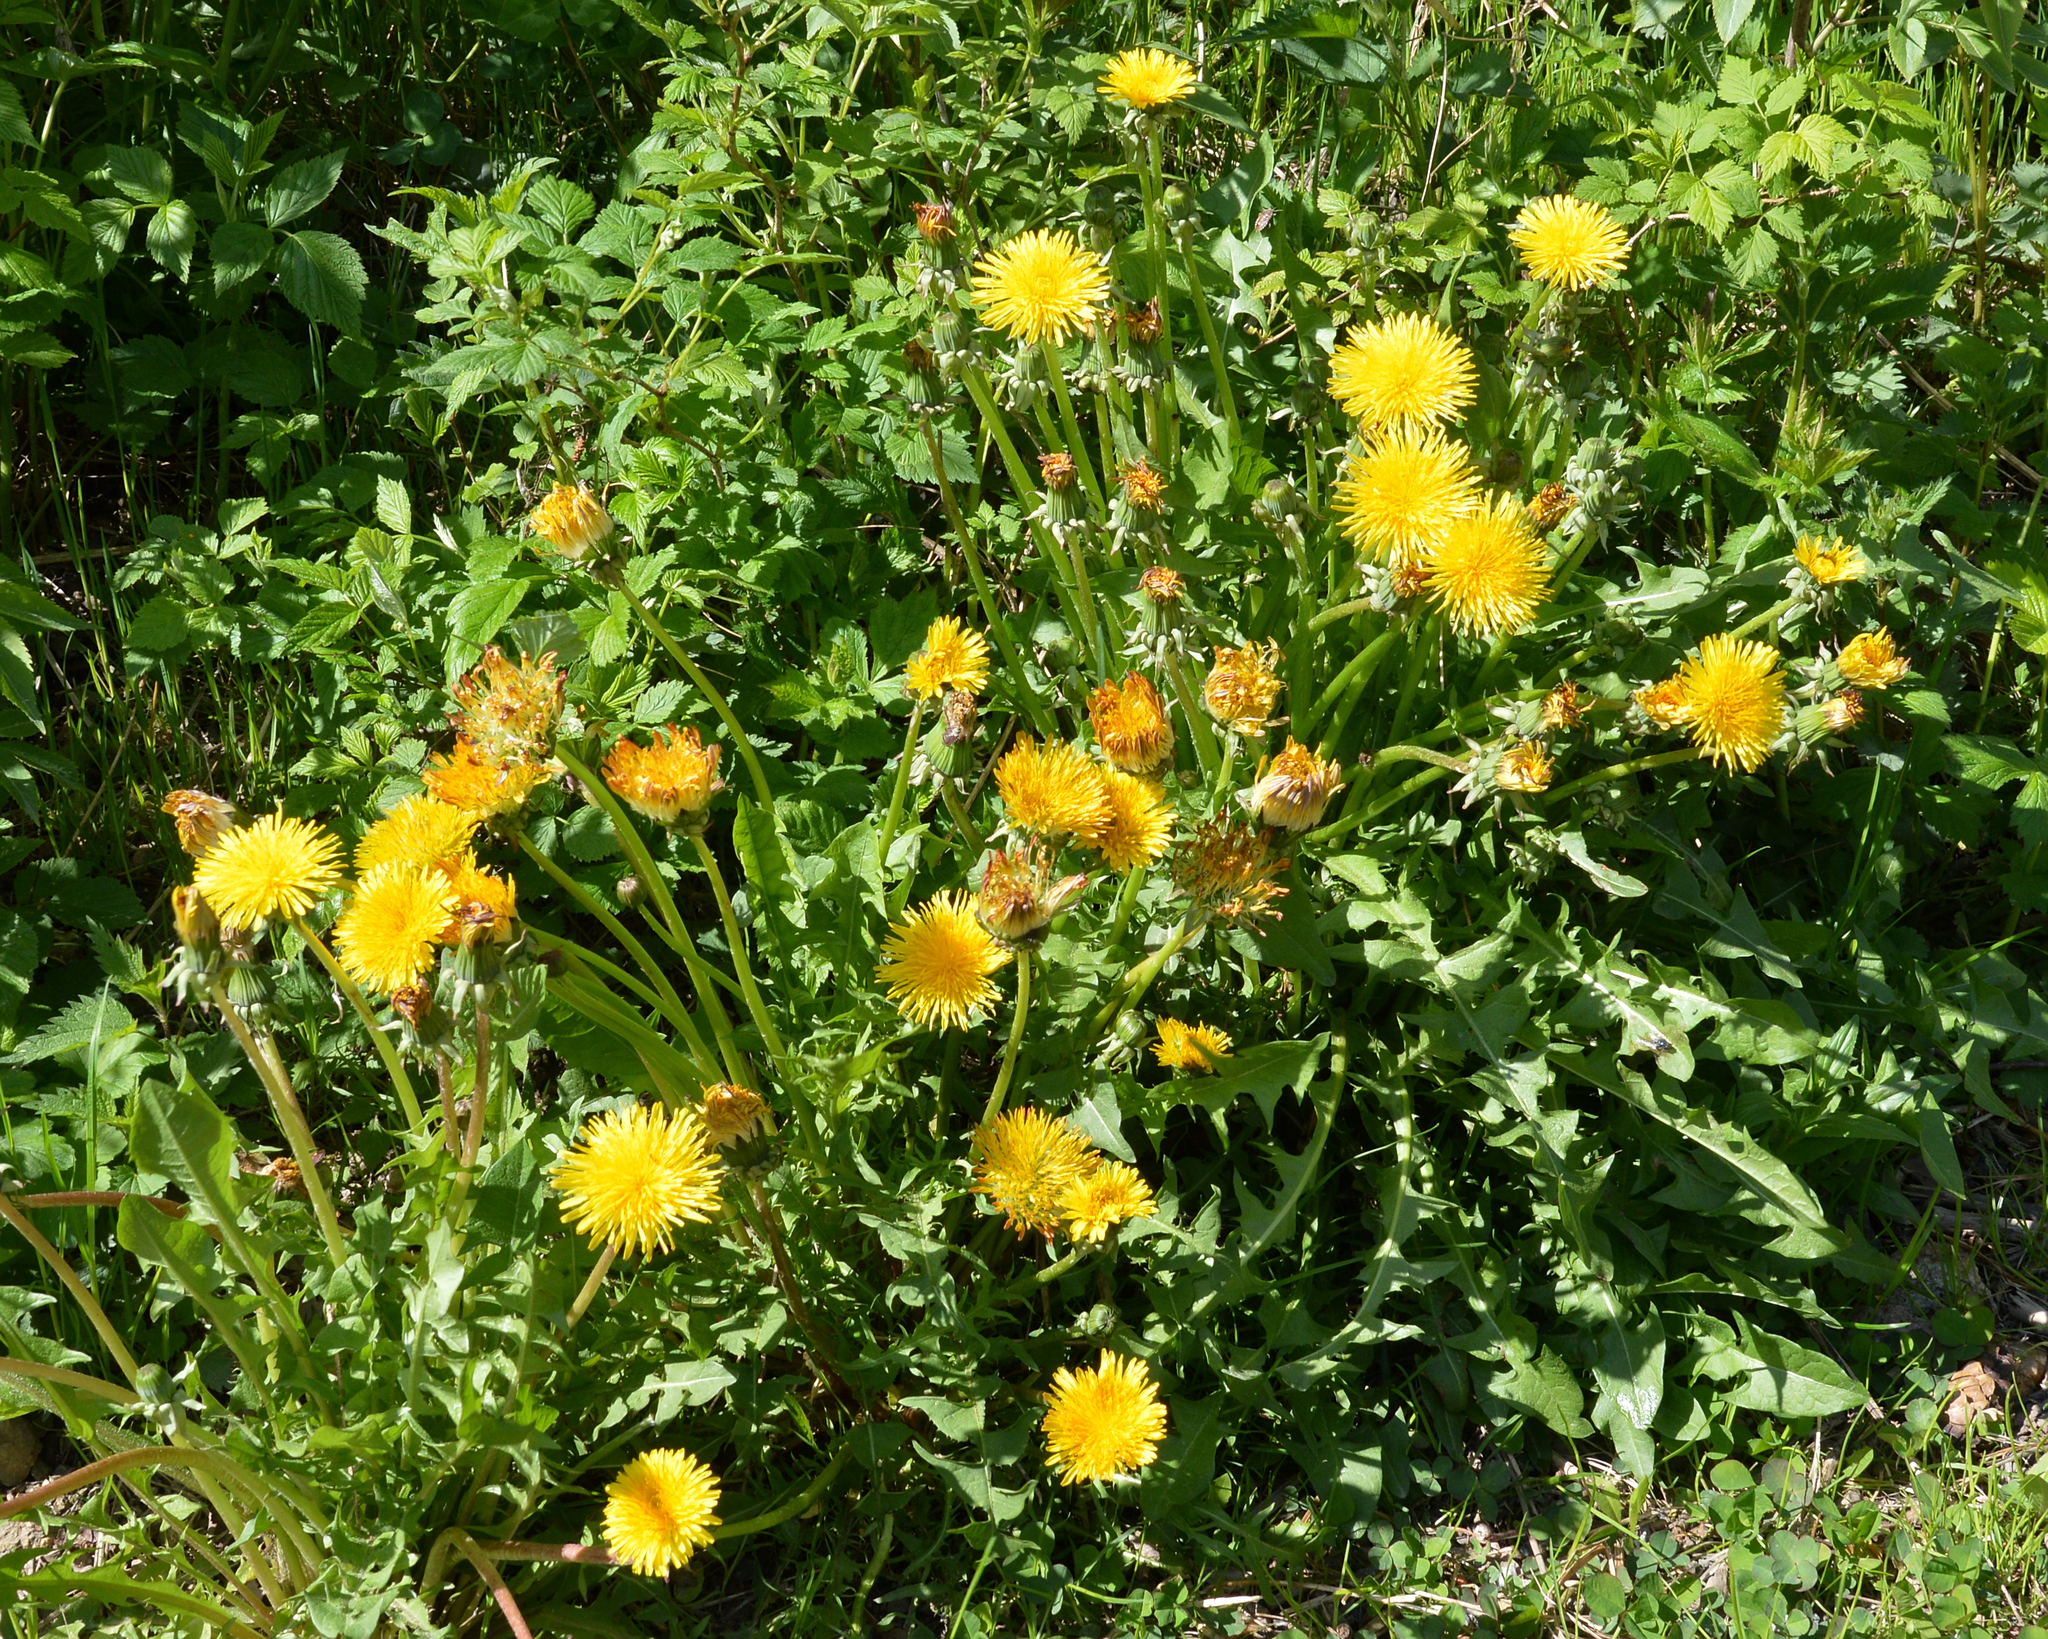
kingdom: Plantae
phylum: Tracheophyta
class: Magnoliopsida
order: Asterales
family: Asteraceae
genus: Taraxacum
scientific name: Taraxacum officinale
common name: Common dandelion
